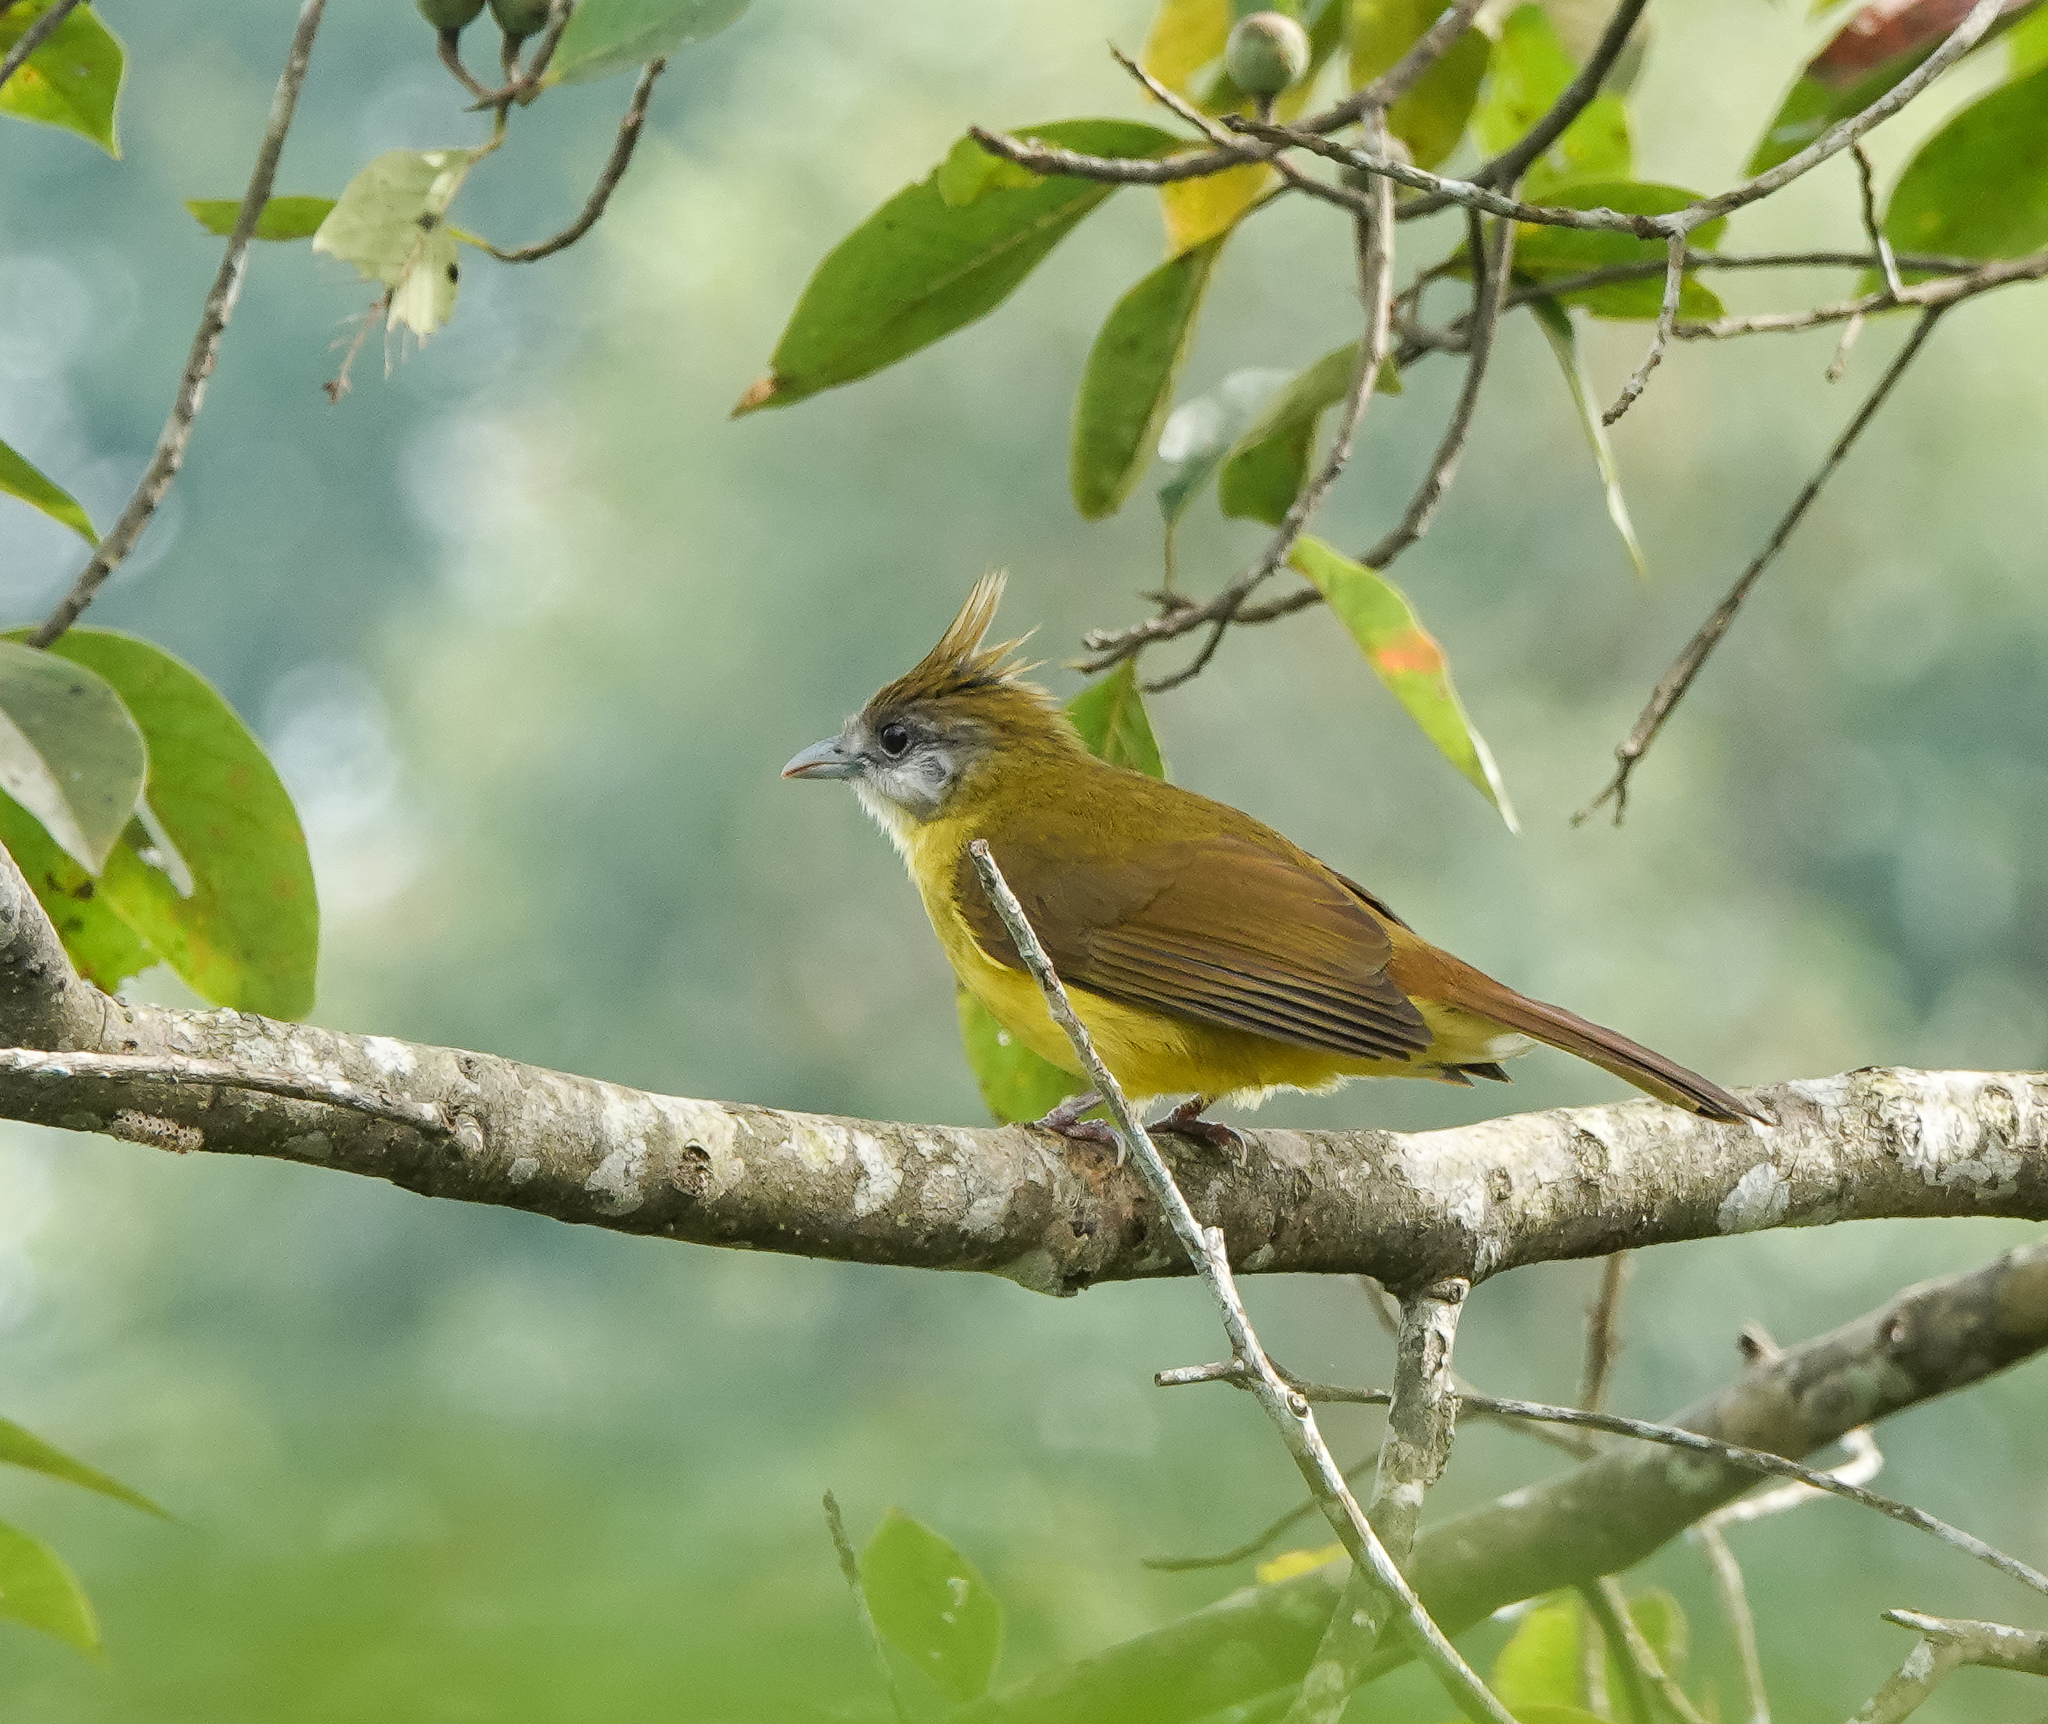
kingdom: Animalia
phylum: Chordata
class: Aves
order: Passeriformes
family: Pycnonotidae
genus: Alophoixus
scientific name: Alophoixus flaveolus
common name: White-throated bulbul
